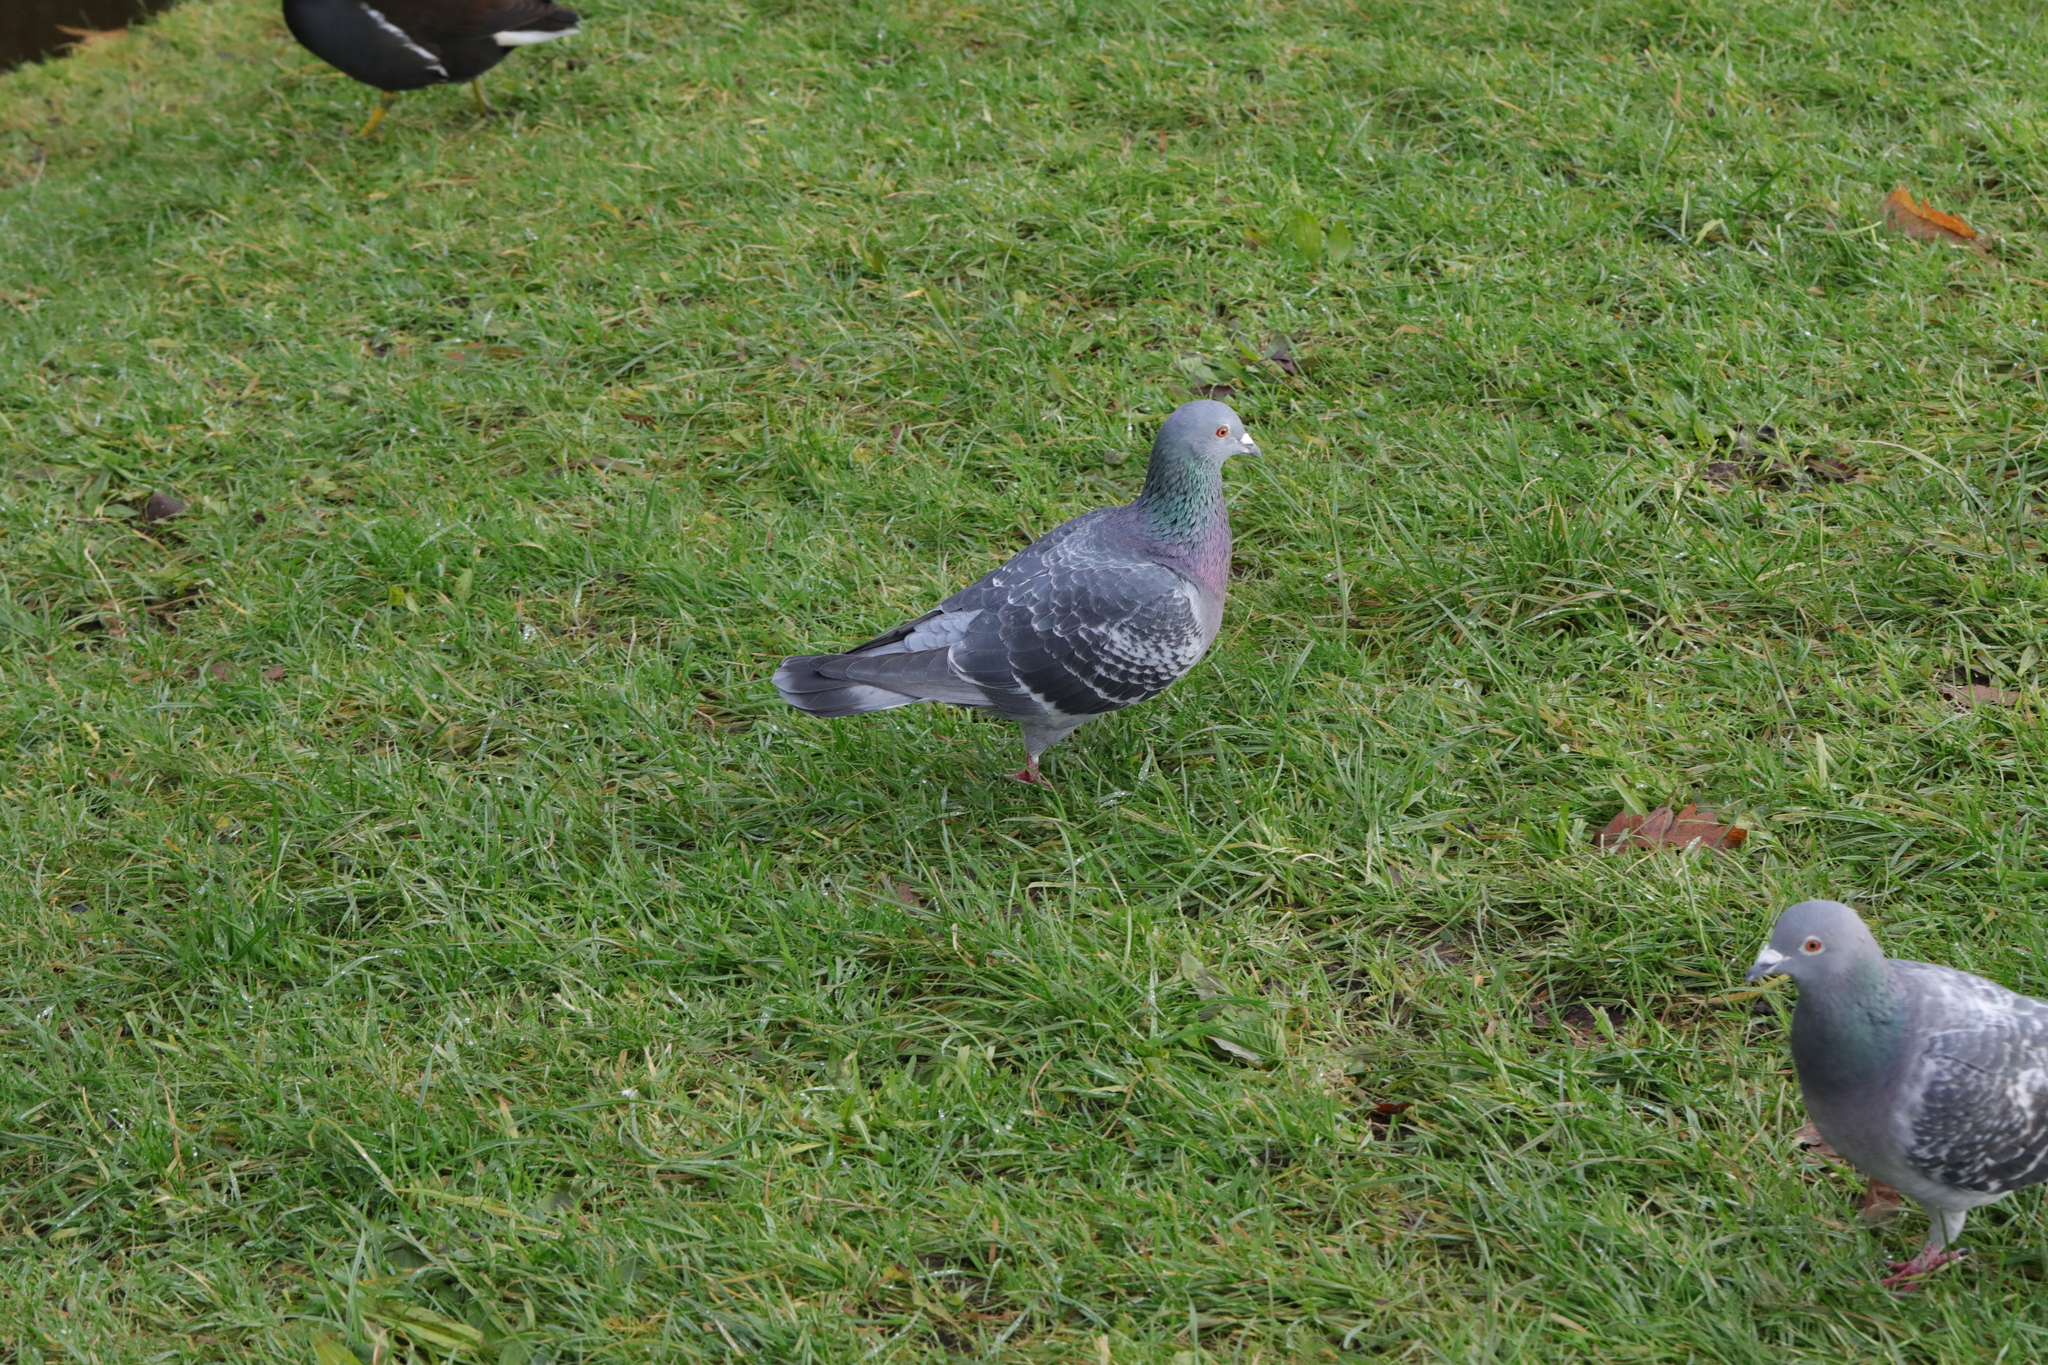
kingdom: Animalia
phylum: Chordata
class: Aves
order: Columbiformes
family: Columbidae
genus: Columba
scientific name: Columba livia
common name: Rock pigeon
